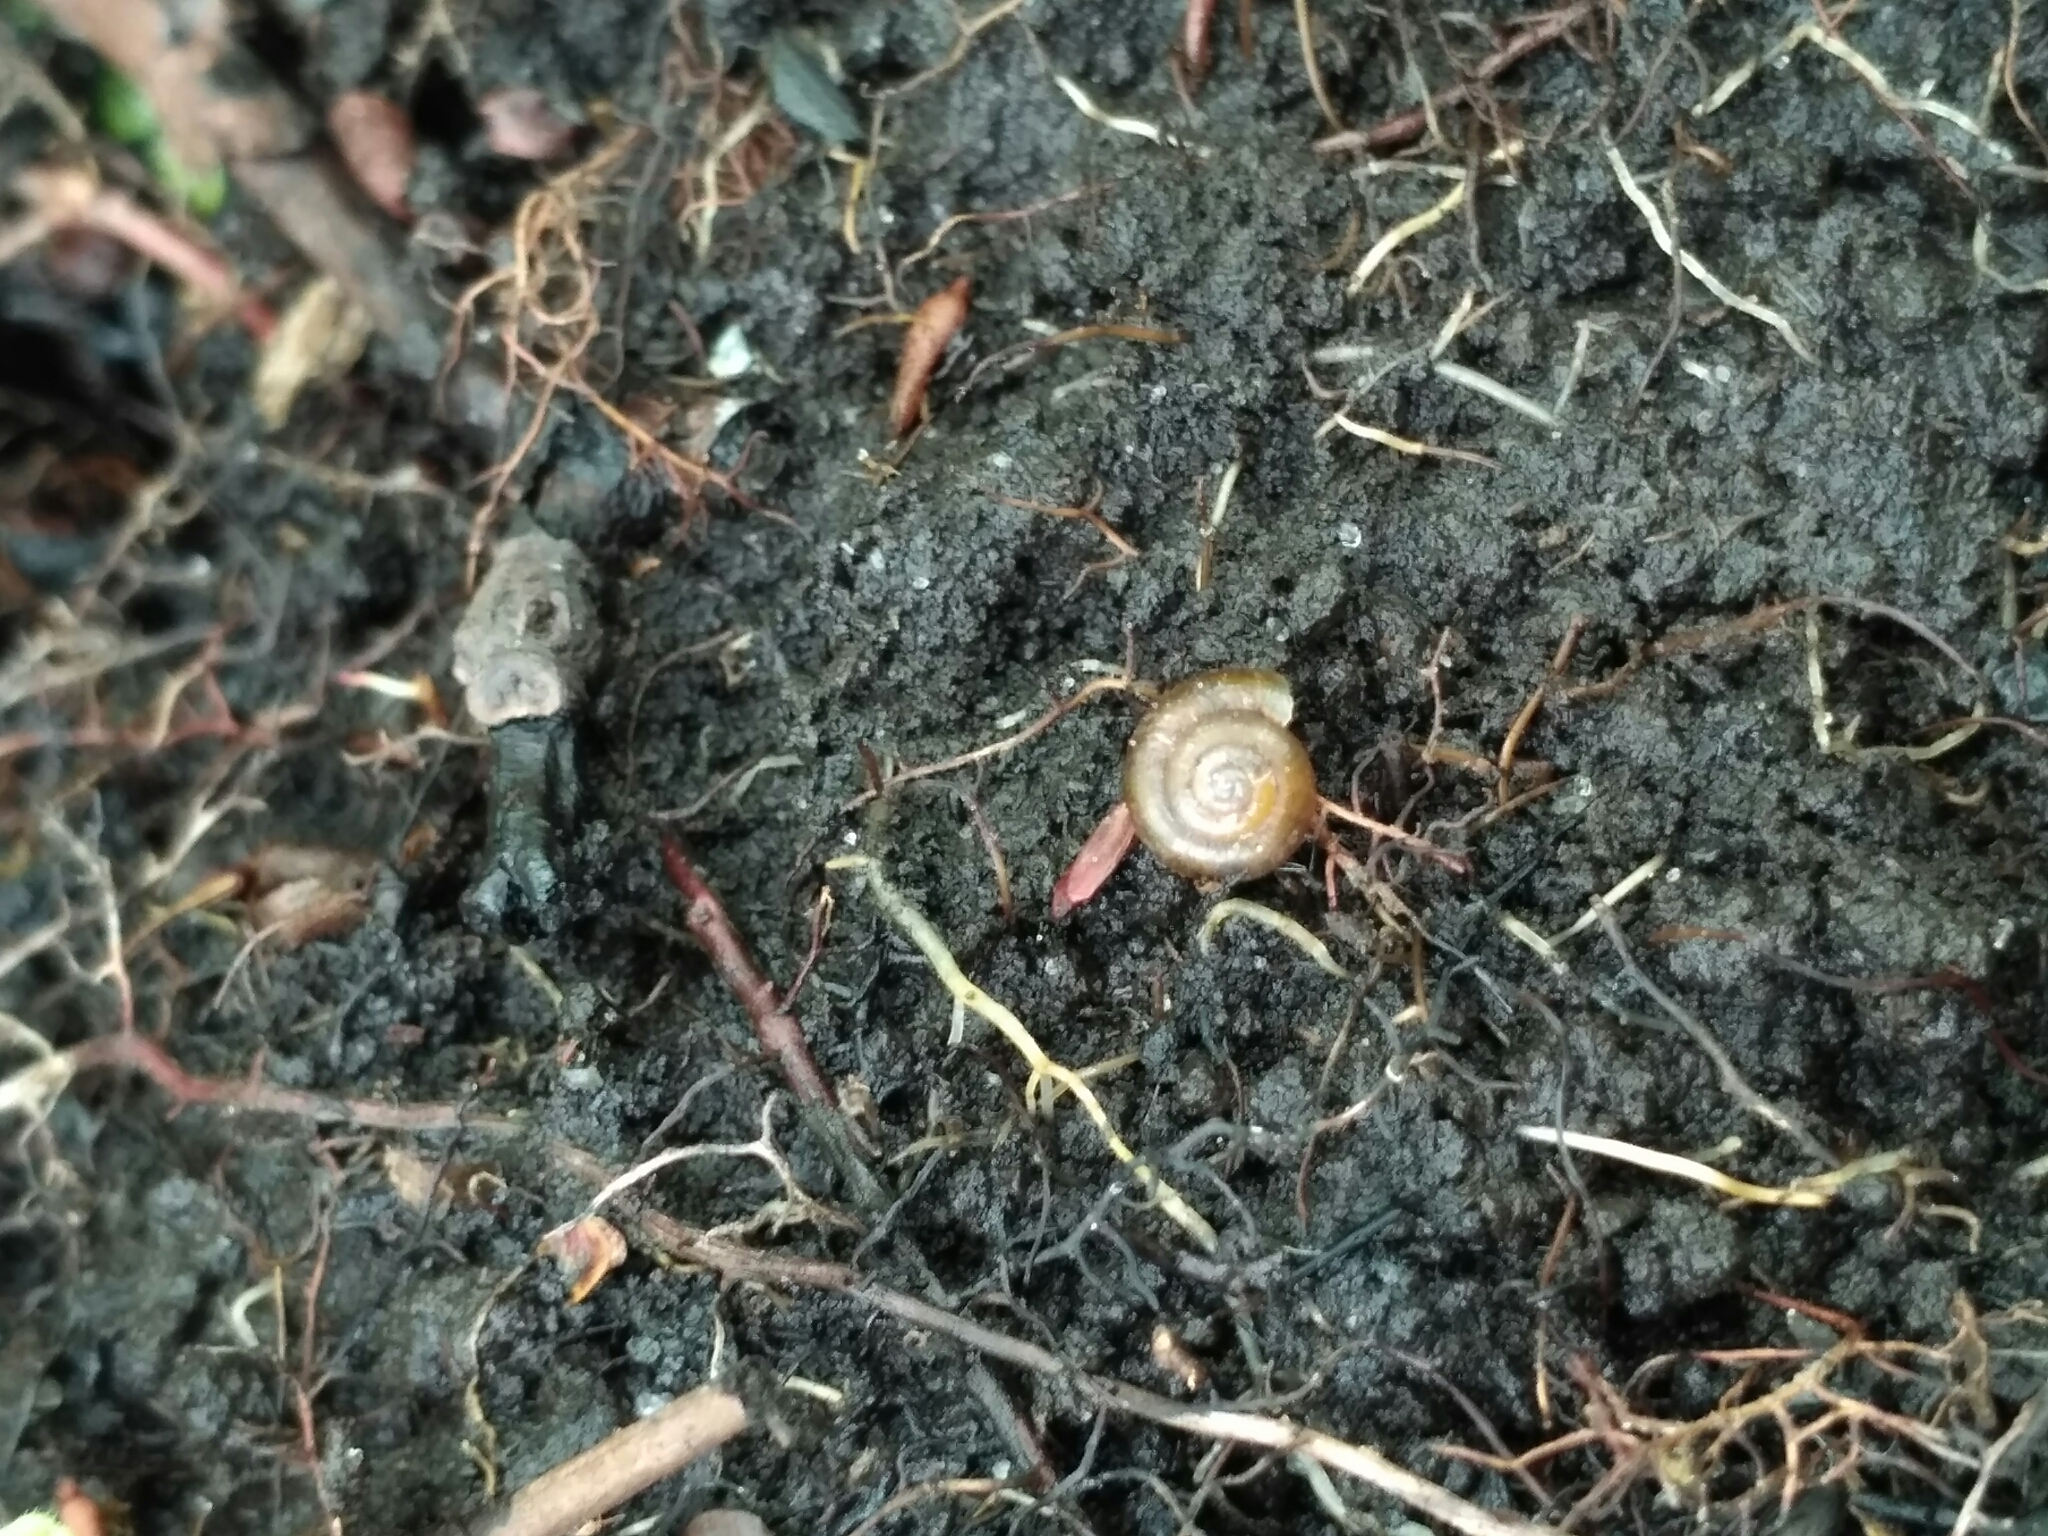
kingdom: Animalia
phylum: Mollusca
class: Gastropoda
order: Stylommatophora
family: Gastrodontidae
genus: Zonitoides
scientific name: Zonitoides nitidus
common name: Shiny glass snail
